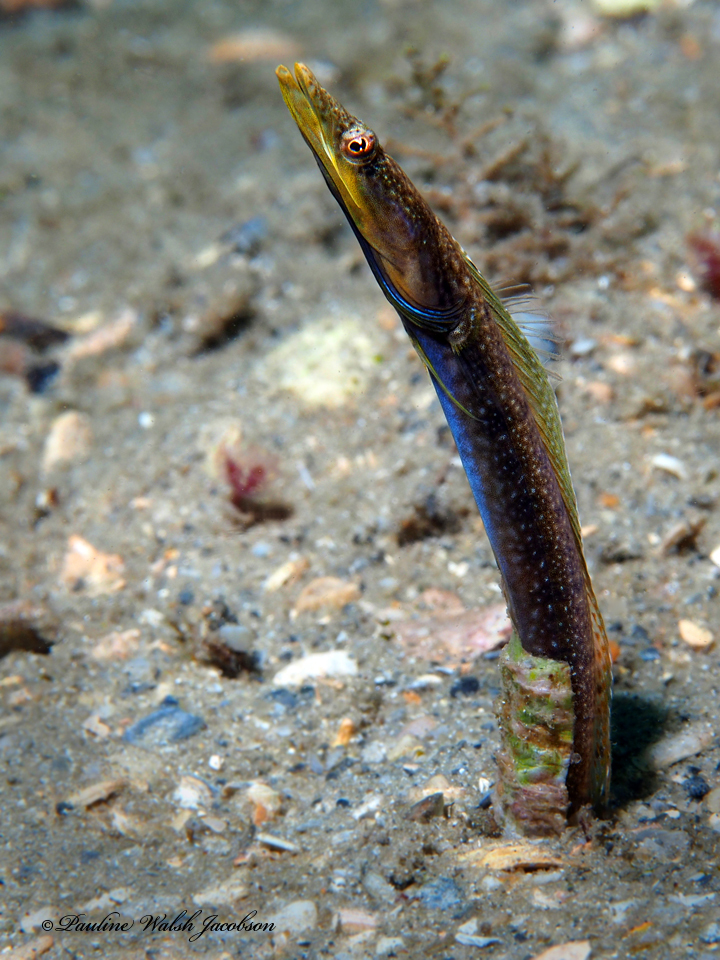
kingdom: Animalia
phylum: Chordata
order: Perciformes
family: Chaenopsidae
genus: Chaenopsis
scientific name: Chaenopsis ocellata
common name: Bluethroat pikeblenny
